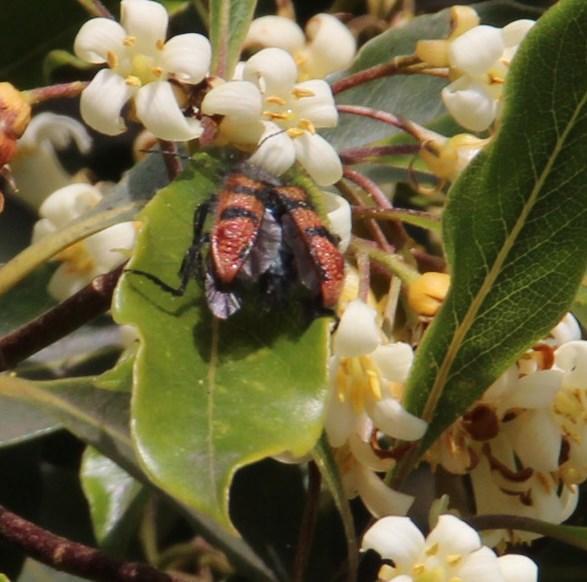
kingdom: Animalia
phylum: Arthropoda
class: Insecta
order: Coleoptera
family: Melyridae
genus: Astylus
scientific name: Astylus
